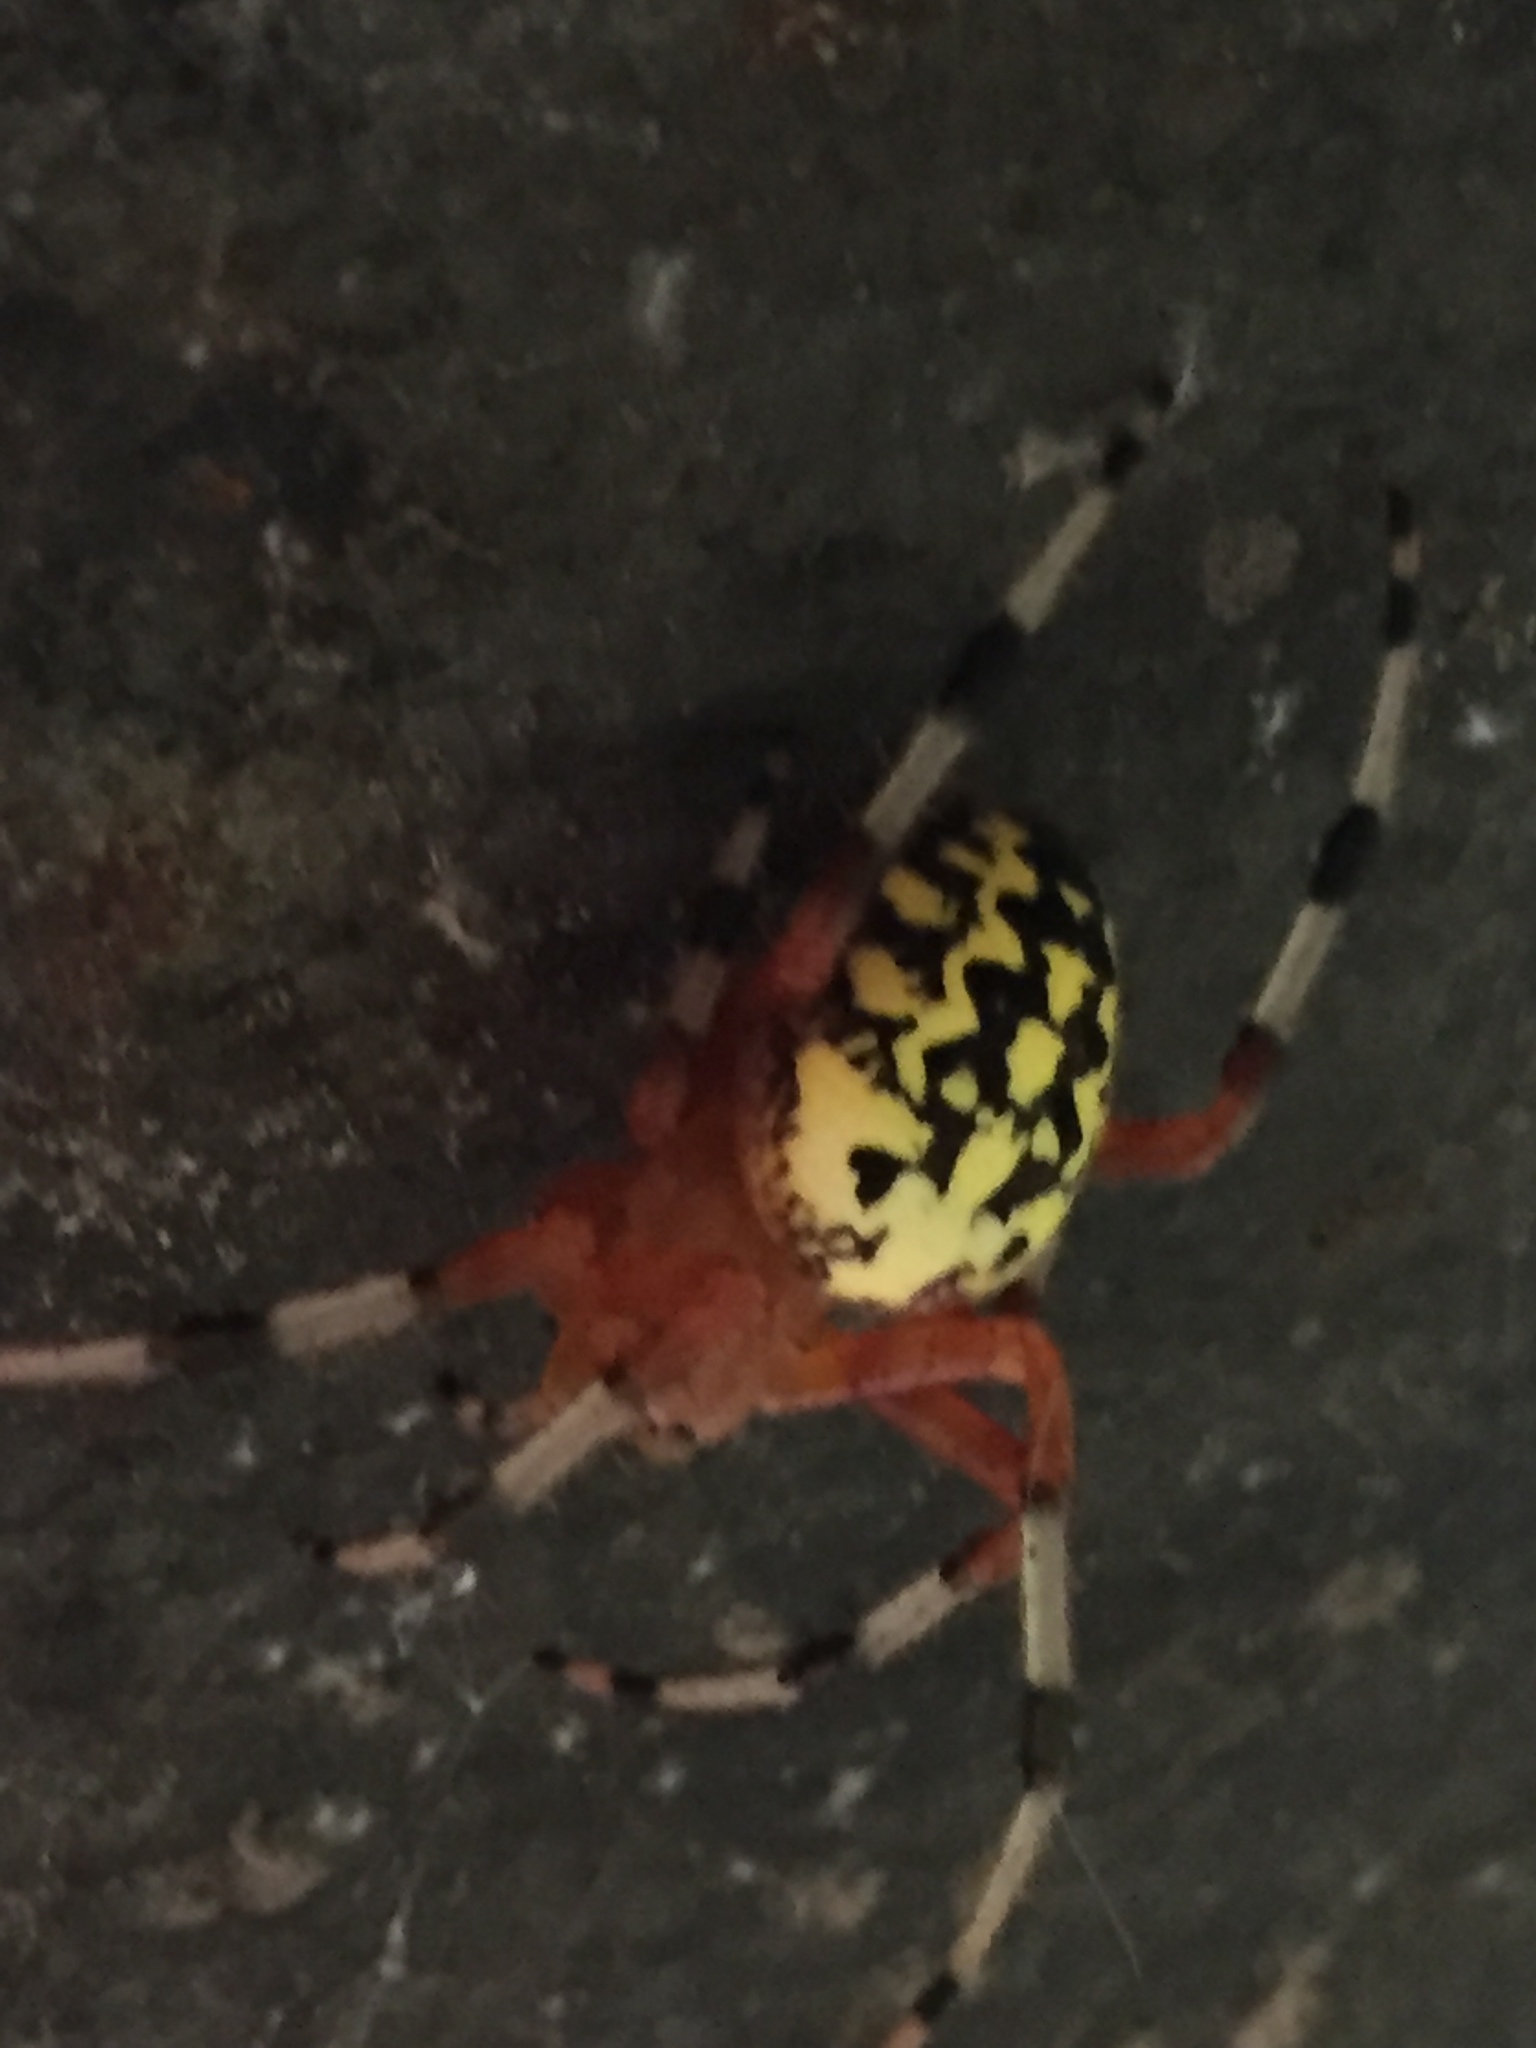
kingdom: Animalia
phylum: Arthropoda
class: Arachnida
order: Araneae
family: Araneidae
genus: Araneus
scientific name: Araneus marmoreus
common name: Marbled orbweaver
